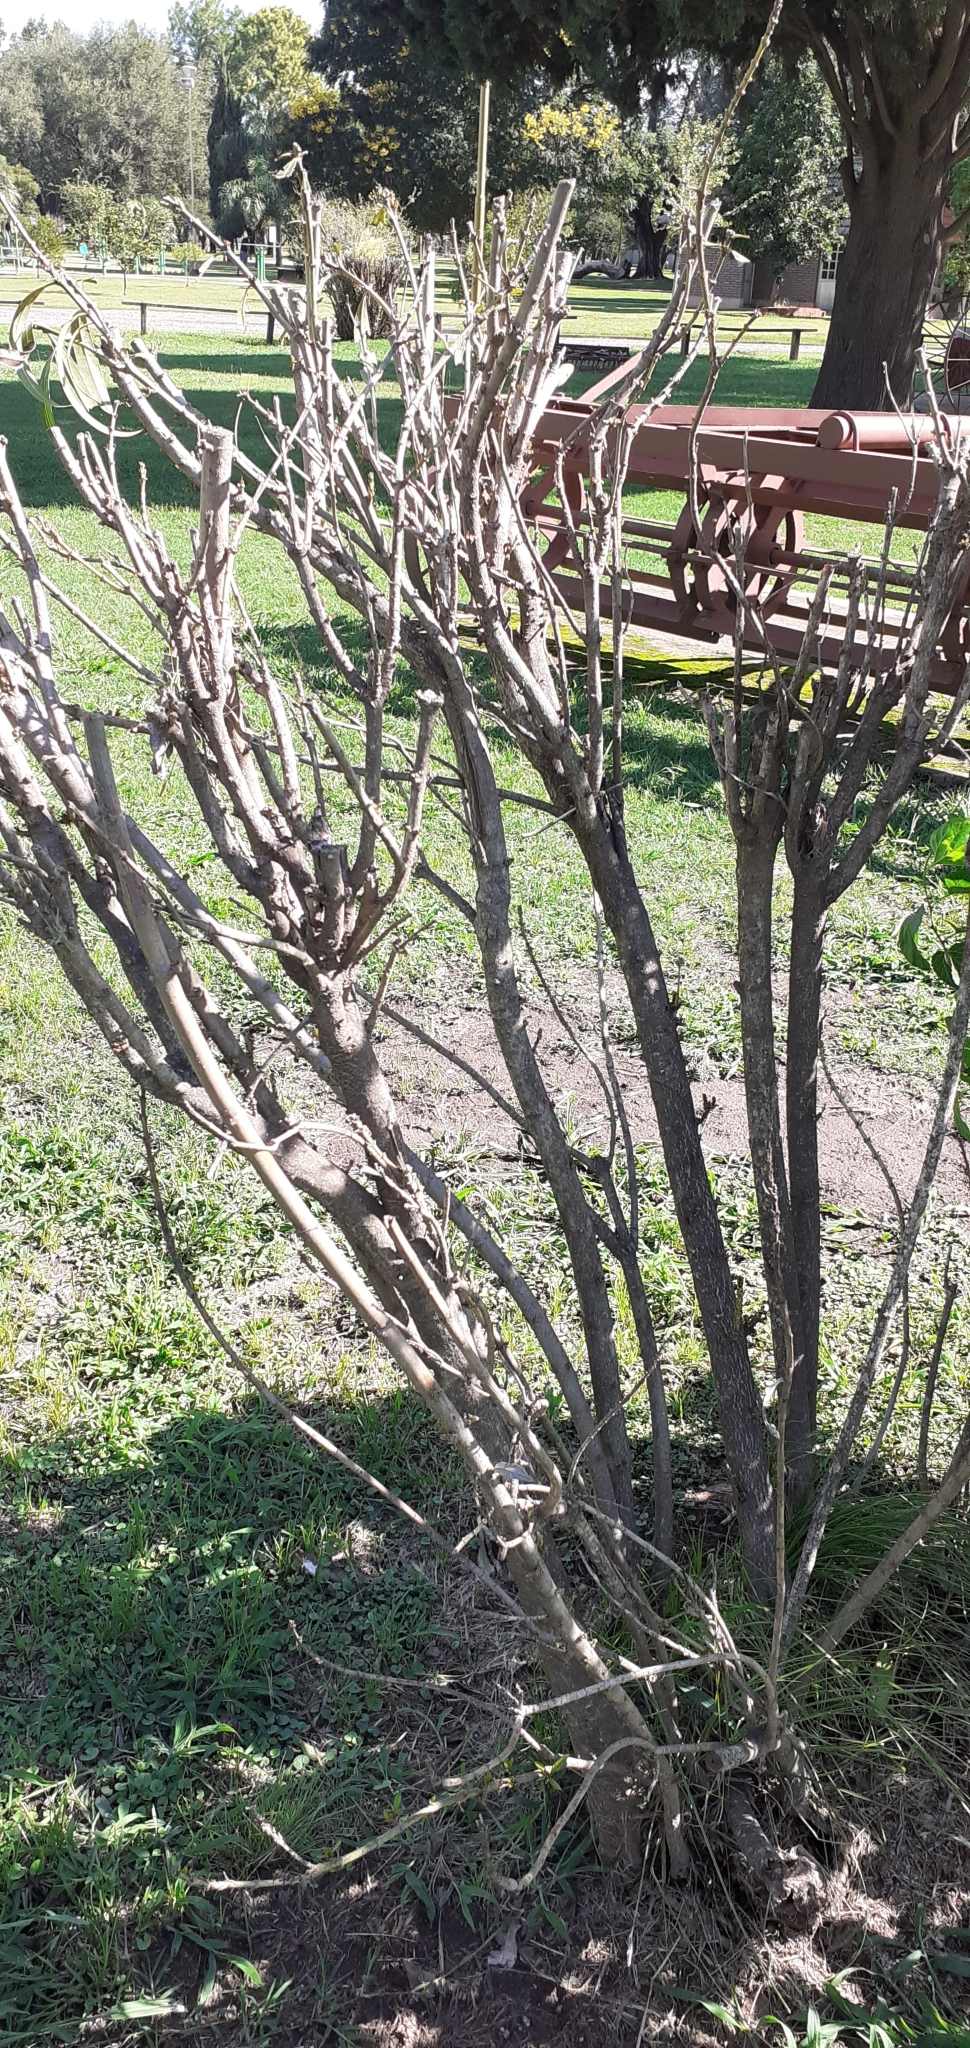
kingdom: Plantae
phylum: Tracheophyta
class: Magnoliopsida
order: Gentianales
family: Apocynaceae
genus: Nerium
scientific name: Nerium oleander
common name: Oleander
